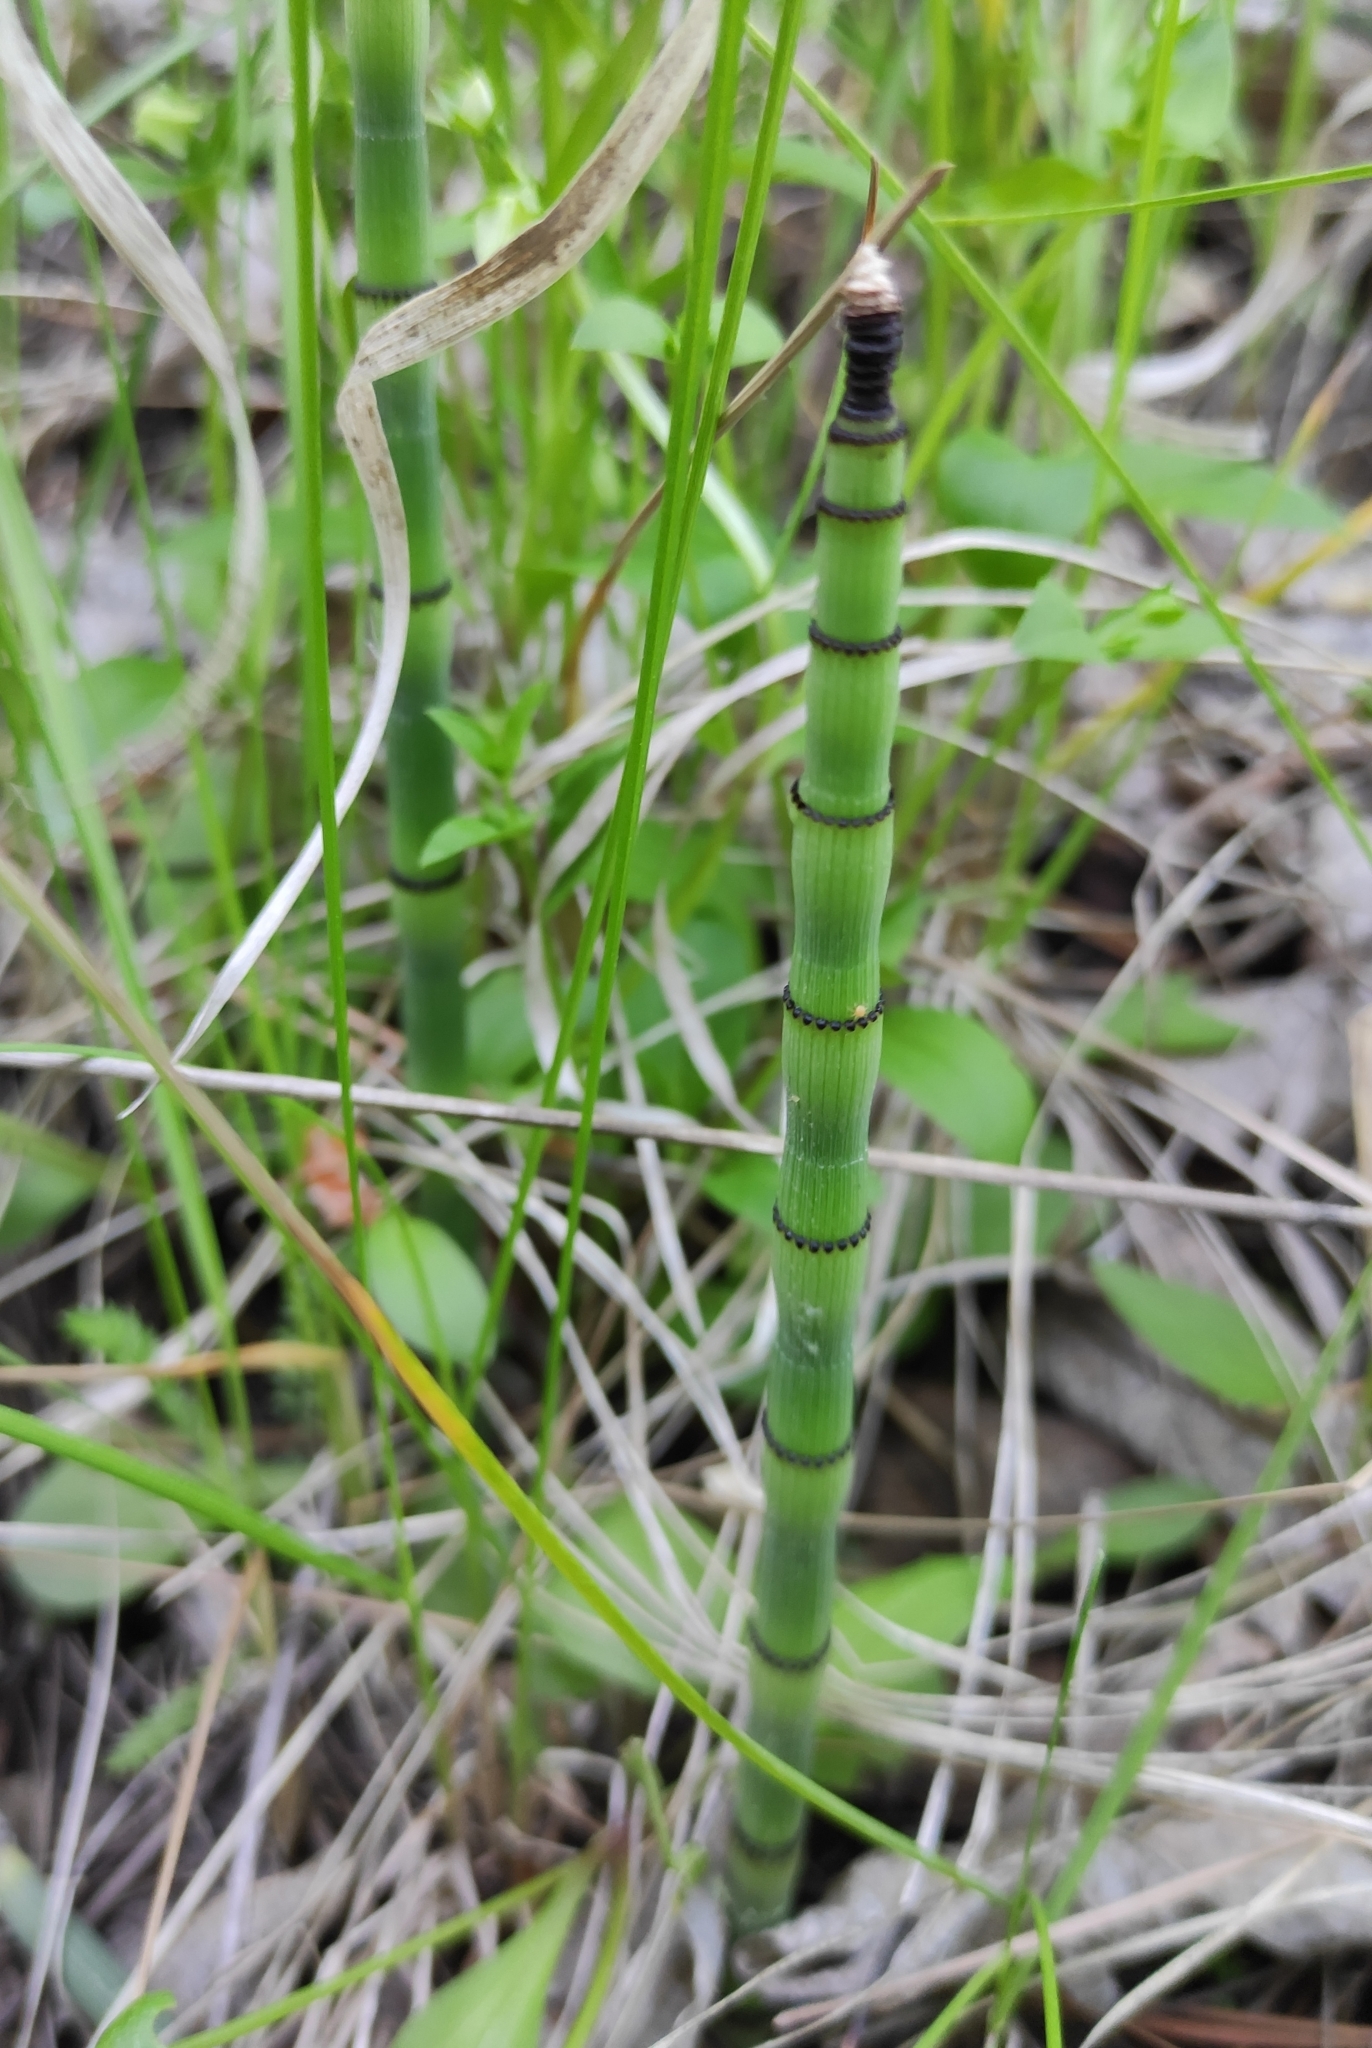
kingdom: Plantae
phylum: Tracheophyta
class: Polypodiopsida
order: Equisetales
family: Equisetaceae
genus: Equisetum
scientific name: Equisetum hyemale
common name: Rough horsetail
